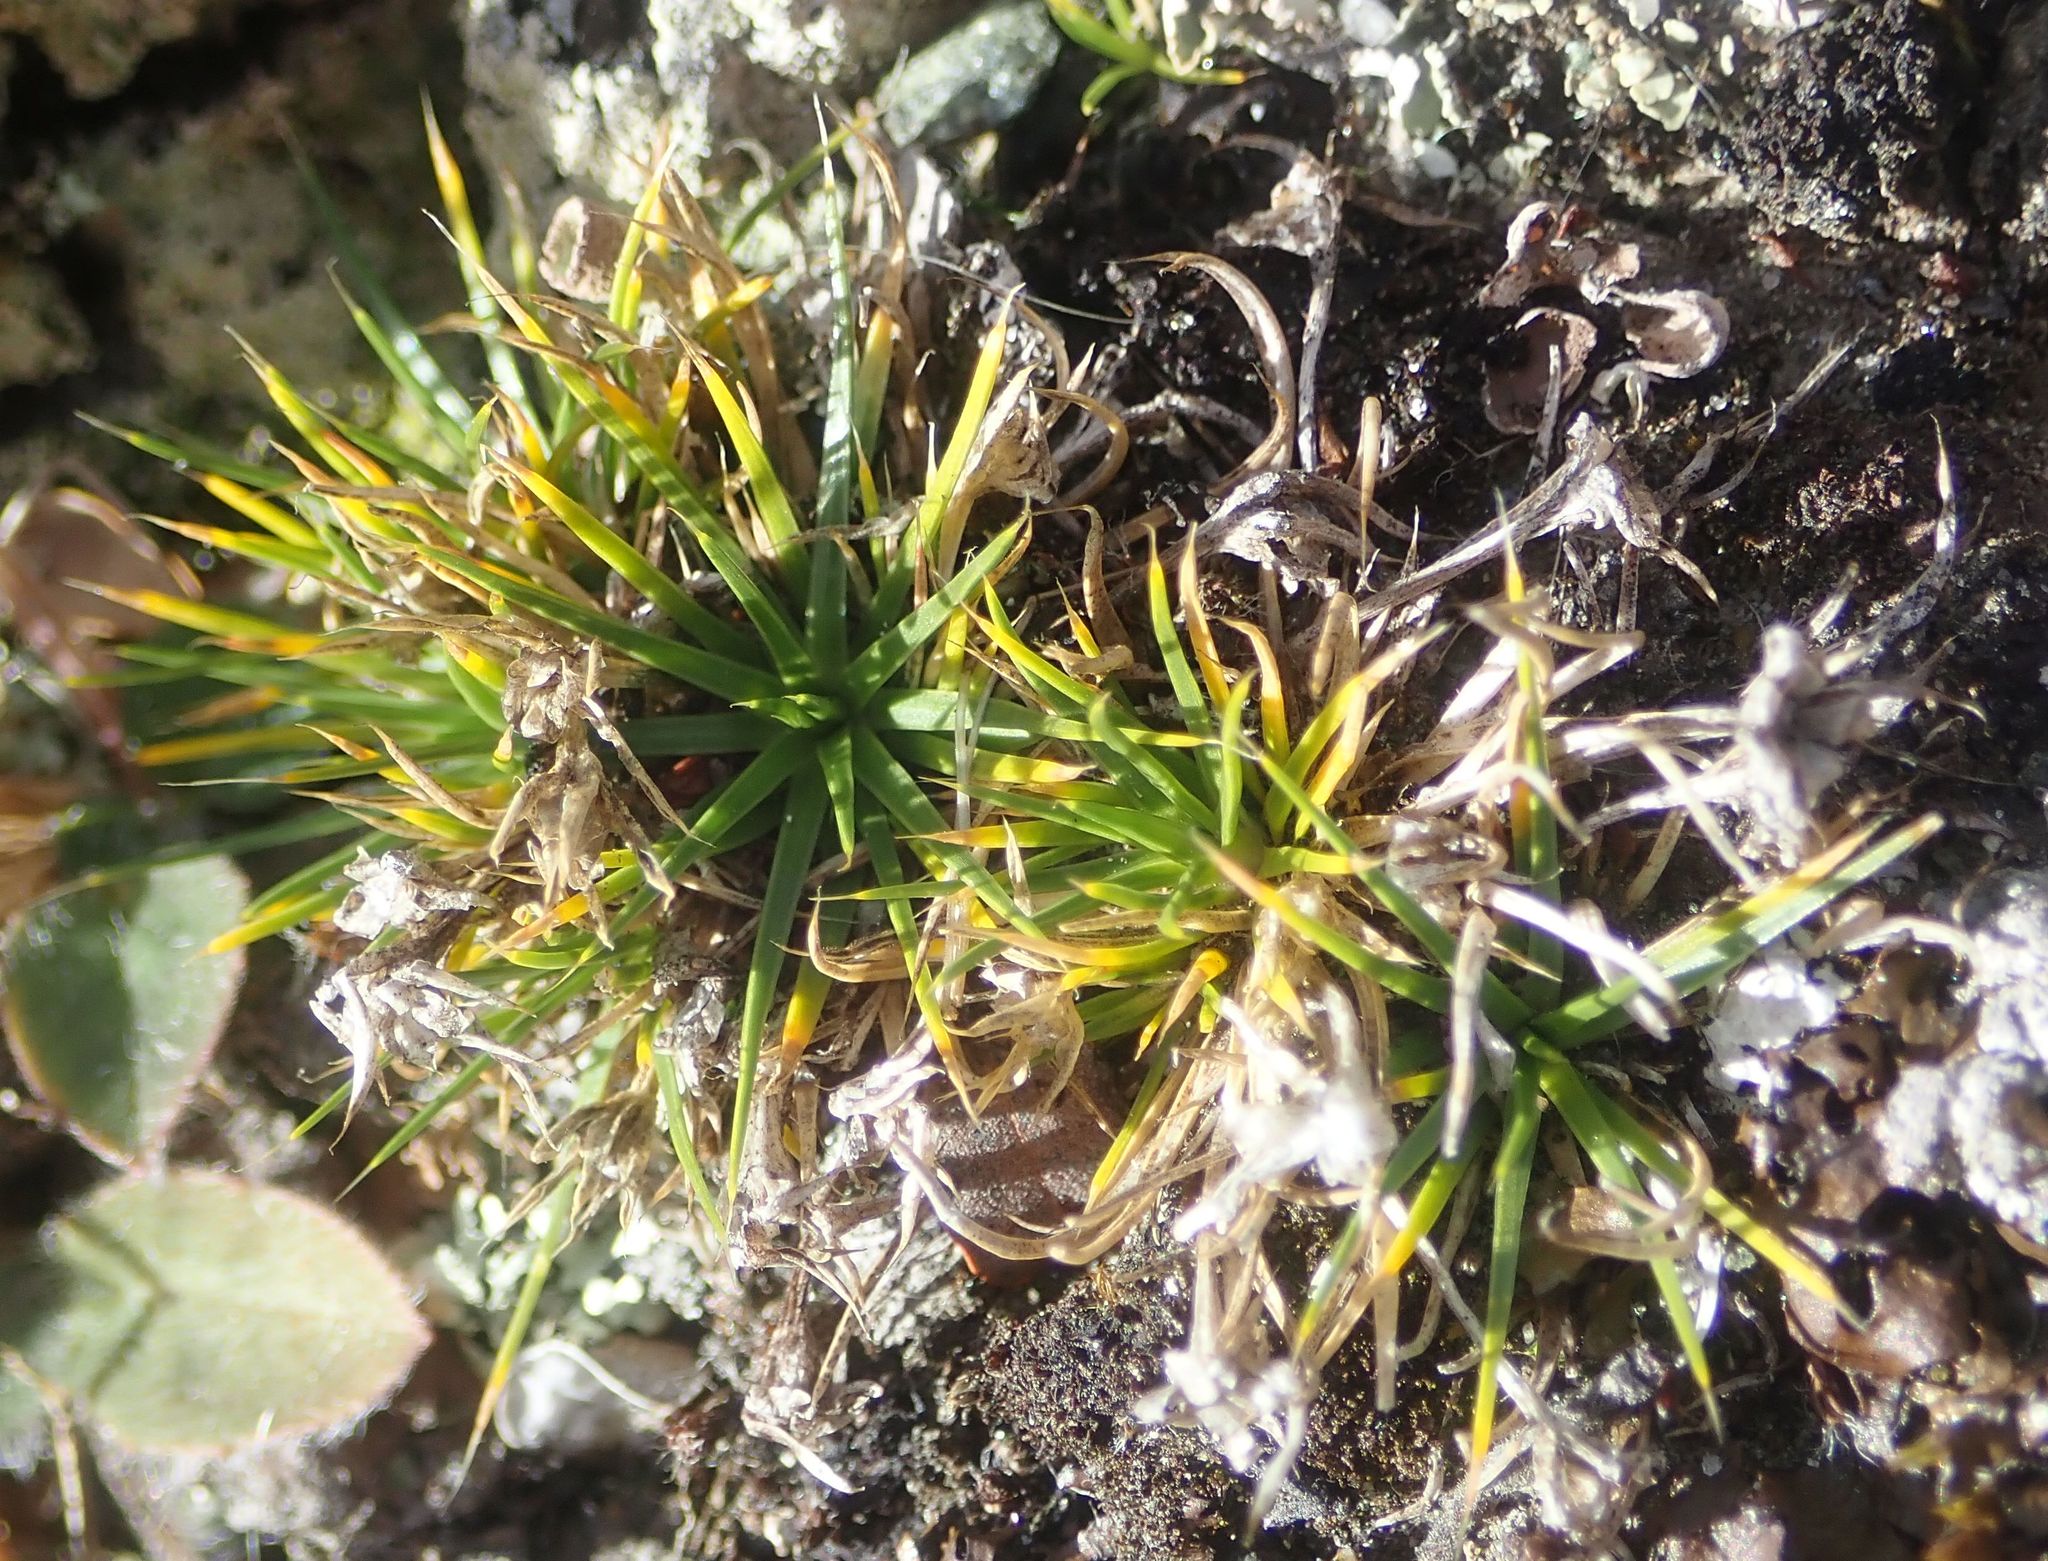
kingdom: Plantae
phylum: Tracheophyta
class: Magnoliopsida
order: Caryophyllales
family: Caryophyllaceae
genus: Colobanthus
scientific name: Colobanthus strictus
